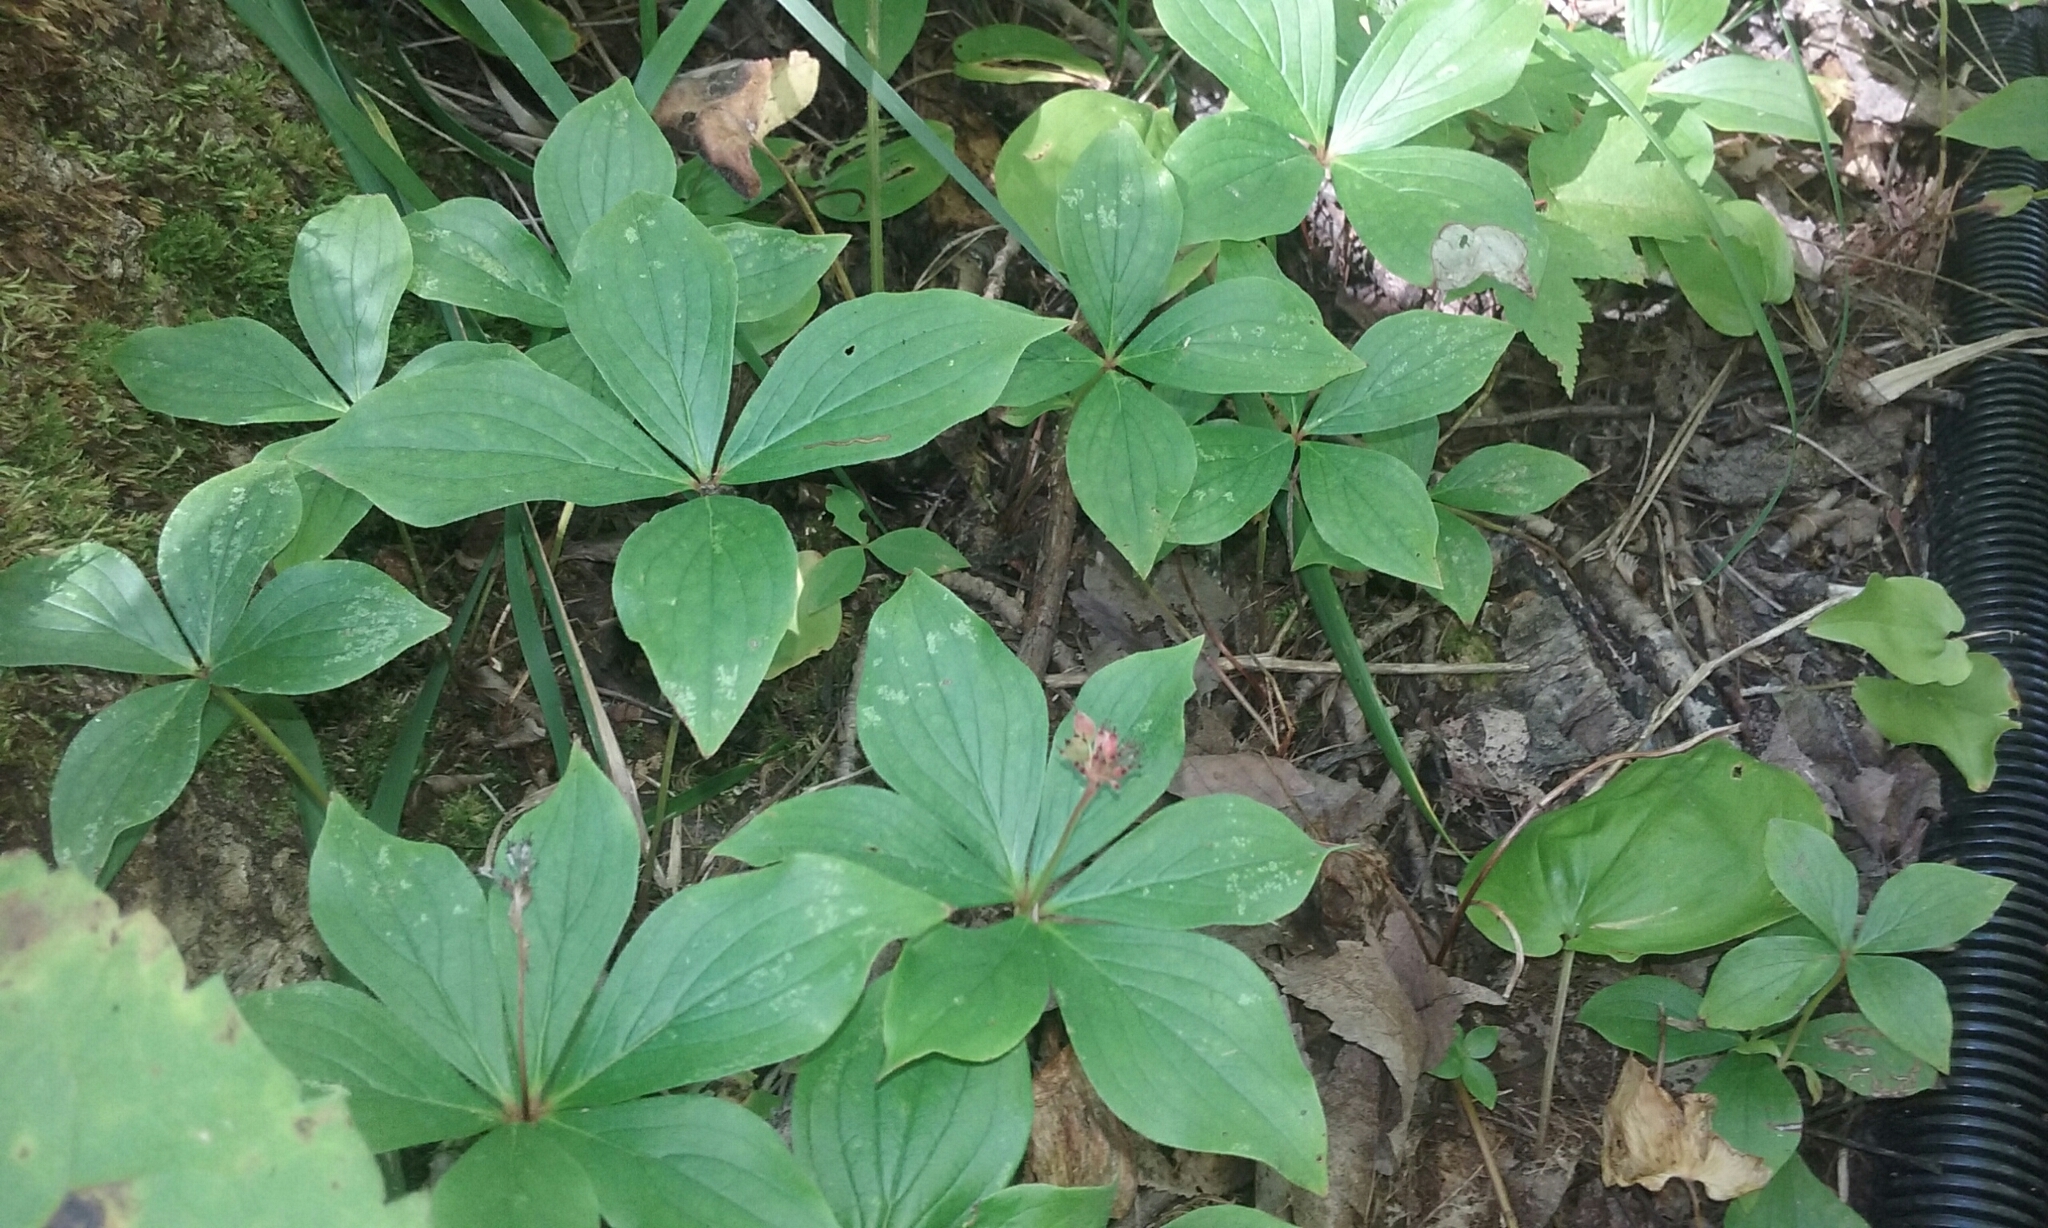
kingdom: Plantae
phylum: Tracheophyta
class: Magnoliopsida
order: Cornales
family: Cornaceae
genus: Cornus
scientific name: Cornus canadensis
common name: Creeping dogwood
